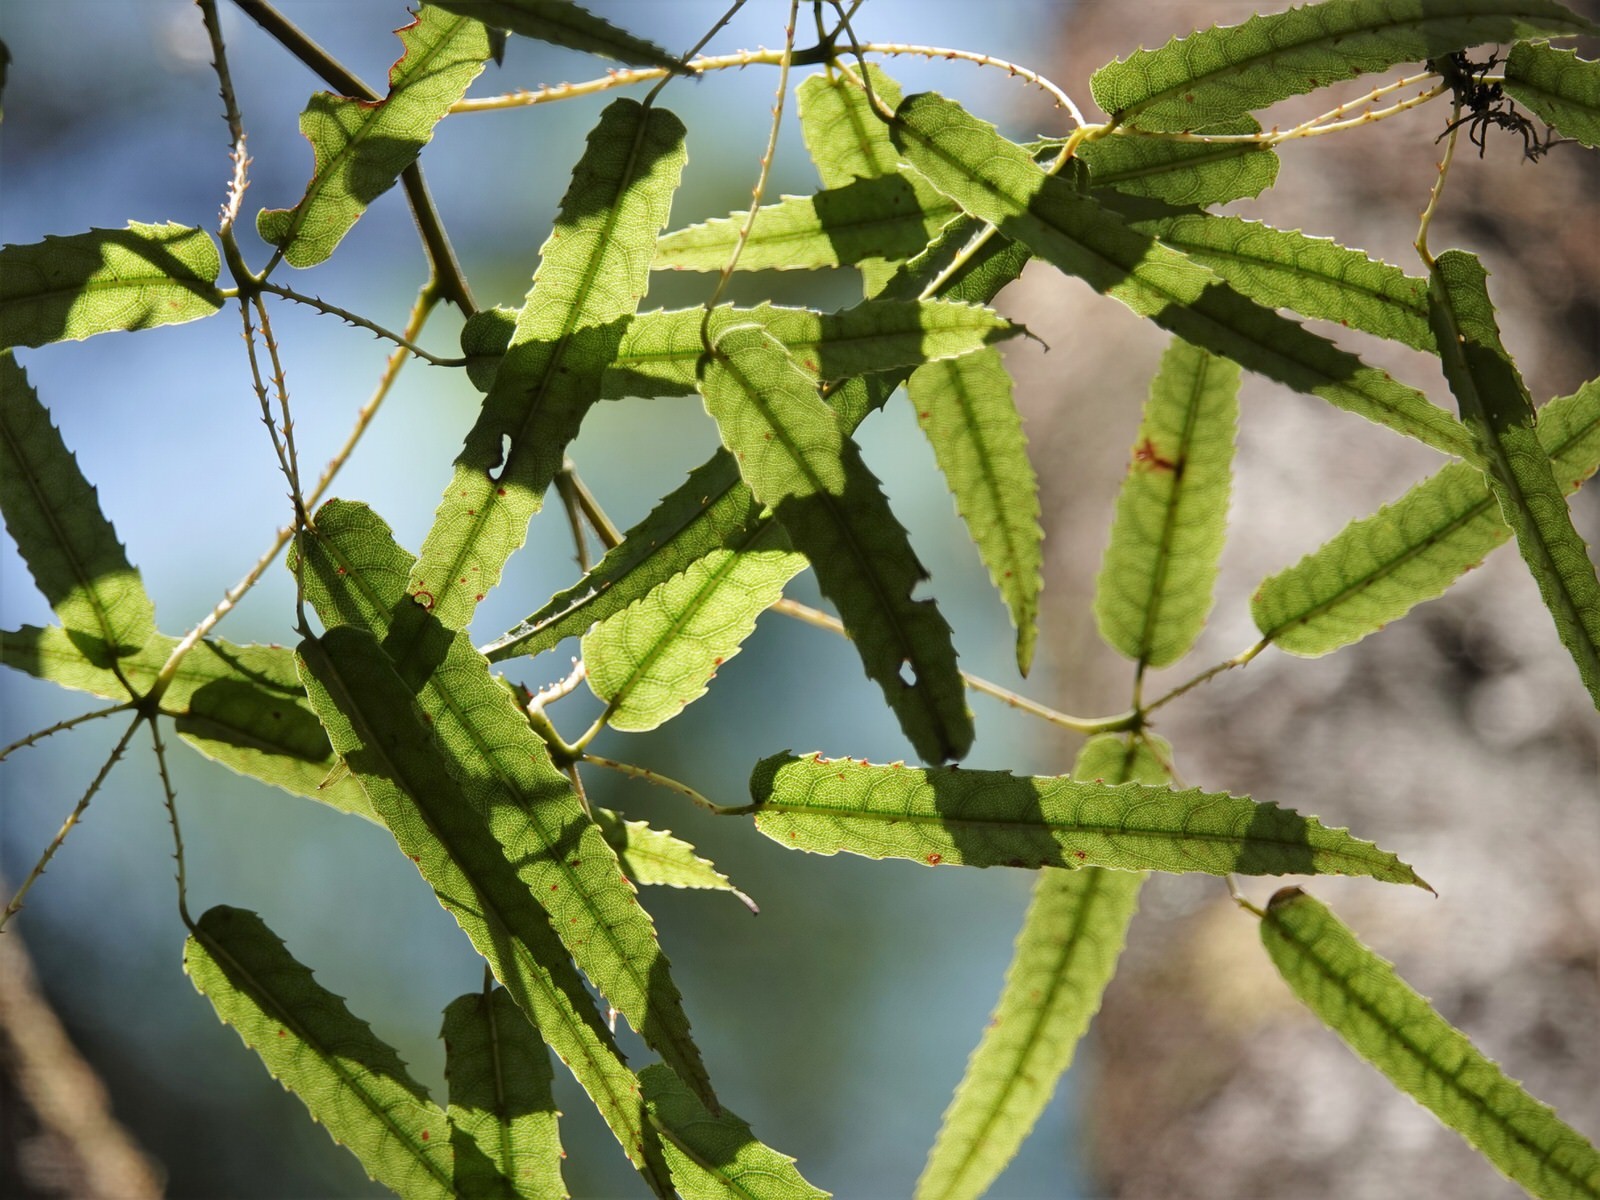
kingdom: Plantae
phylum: Tracheophyta
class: Magnoliopsida
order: Rosales
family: Rosaceae
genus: Rubus
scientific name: Rubus cissoides
